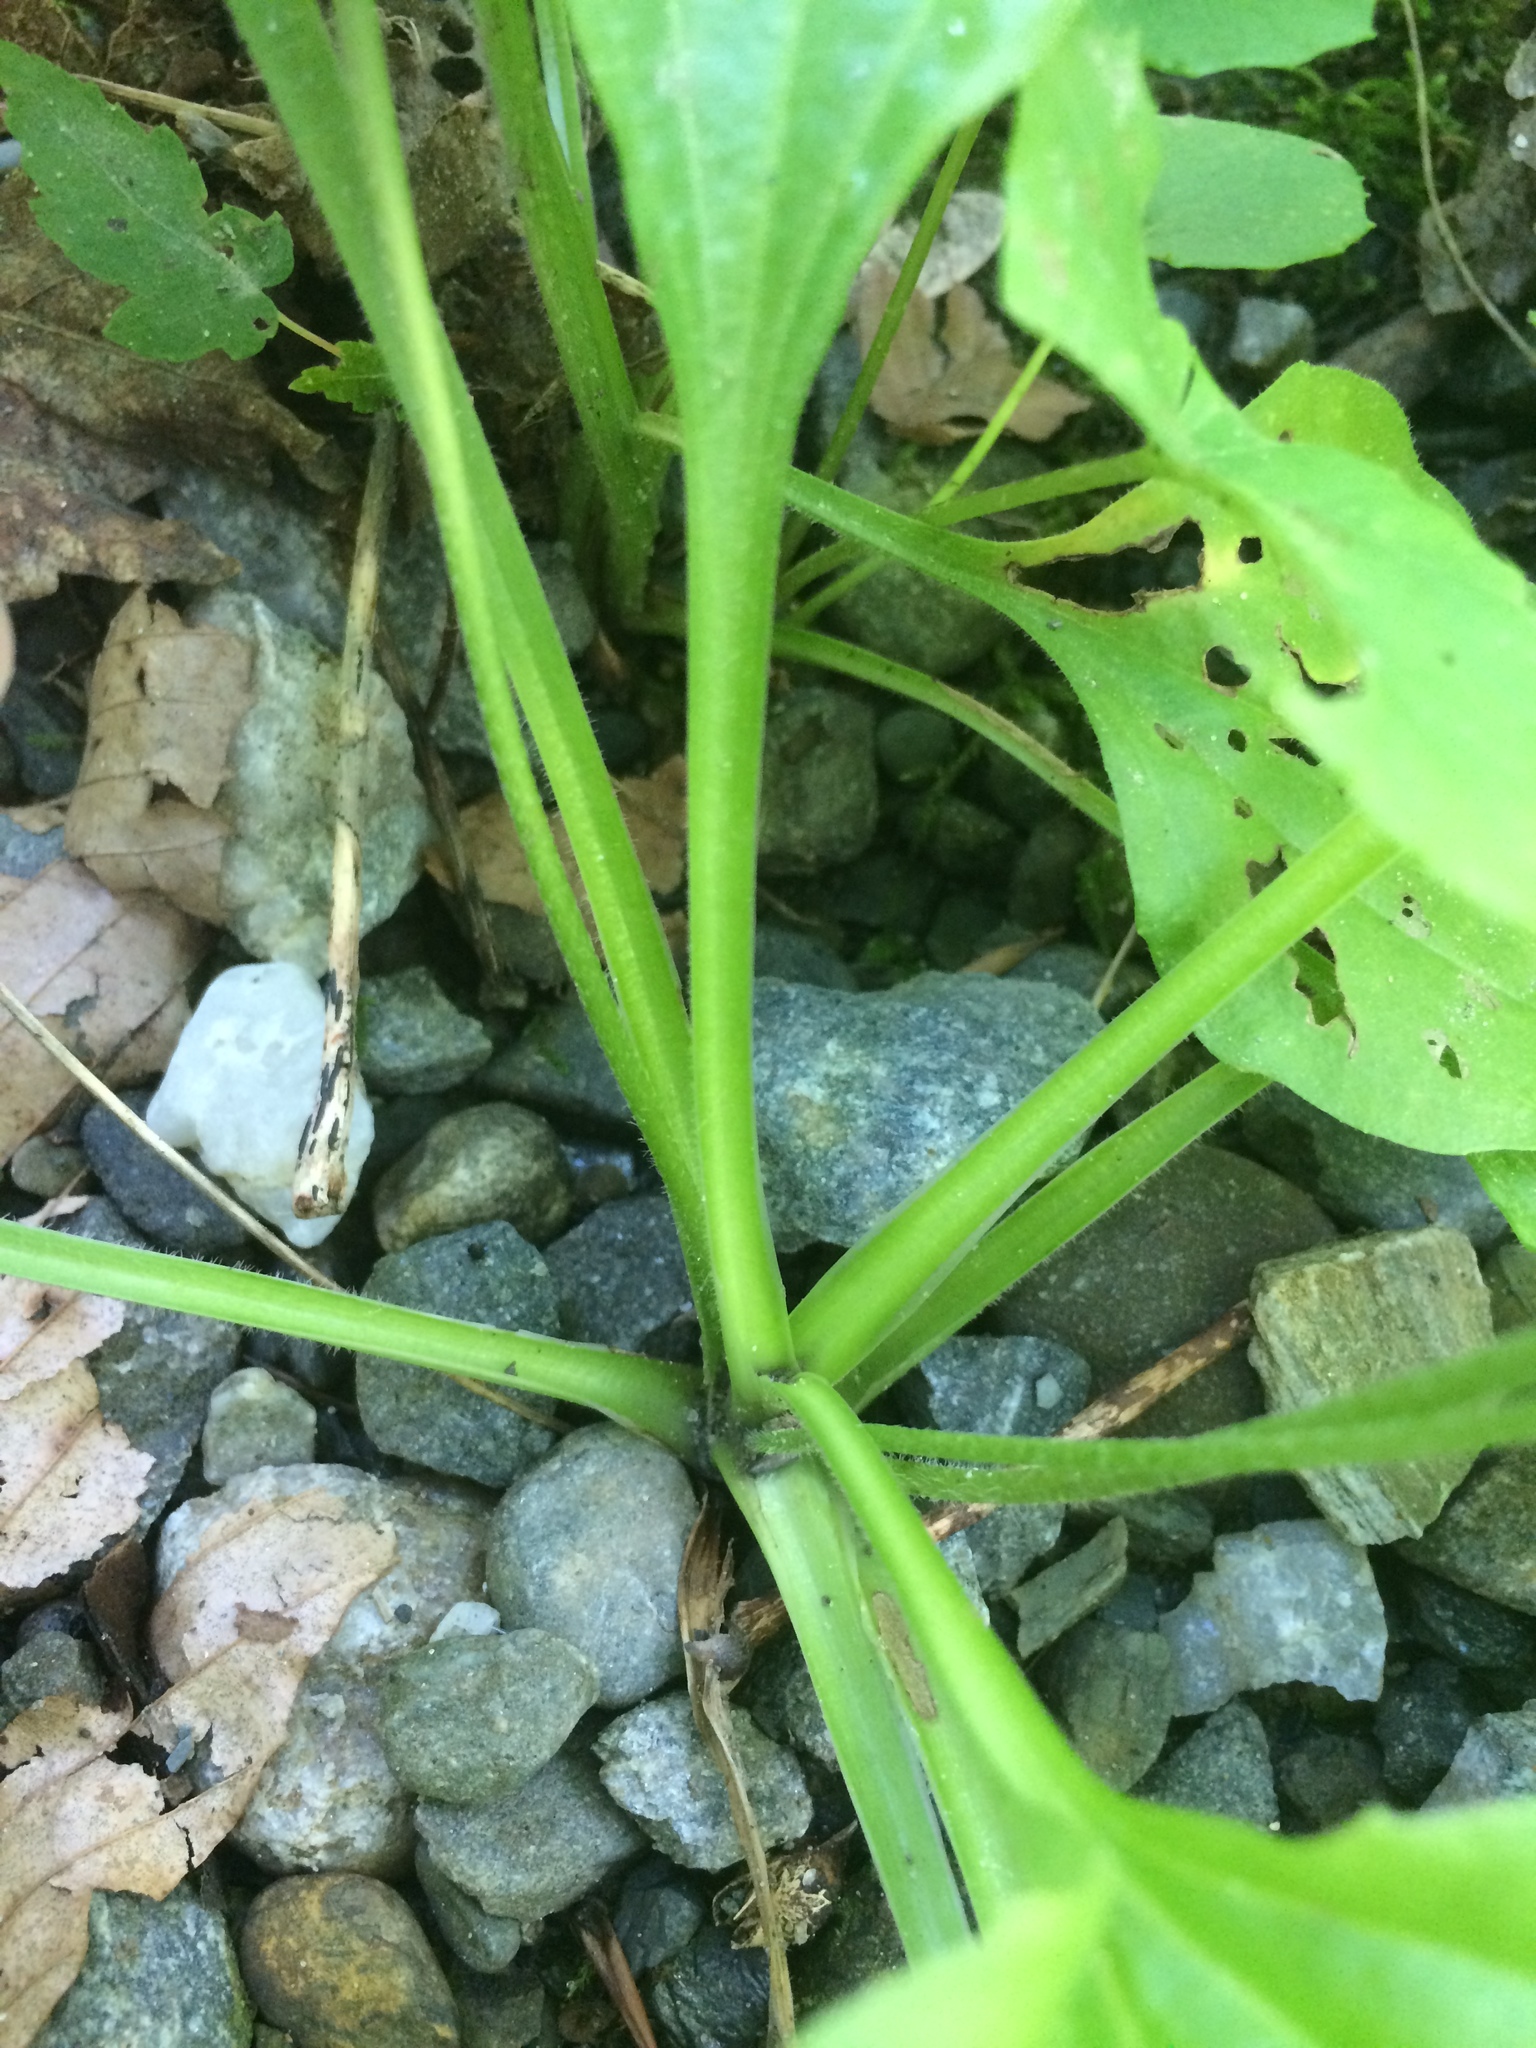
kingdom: Plantae
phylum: Tracheophyta
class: Magnoliopsida
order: Lamiales
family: Plantaginaceae
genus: Plantago
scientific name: Plantago major
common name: Common plantain
